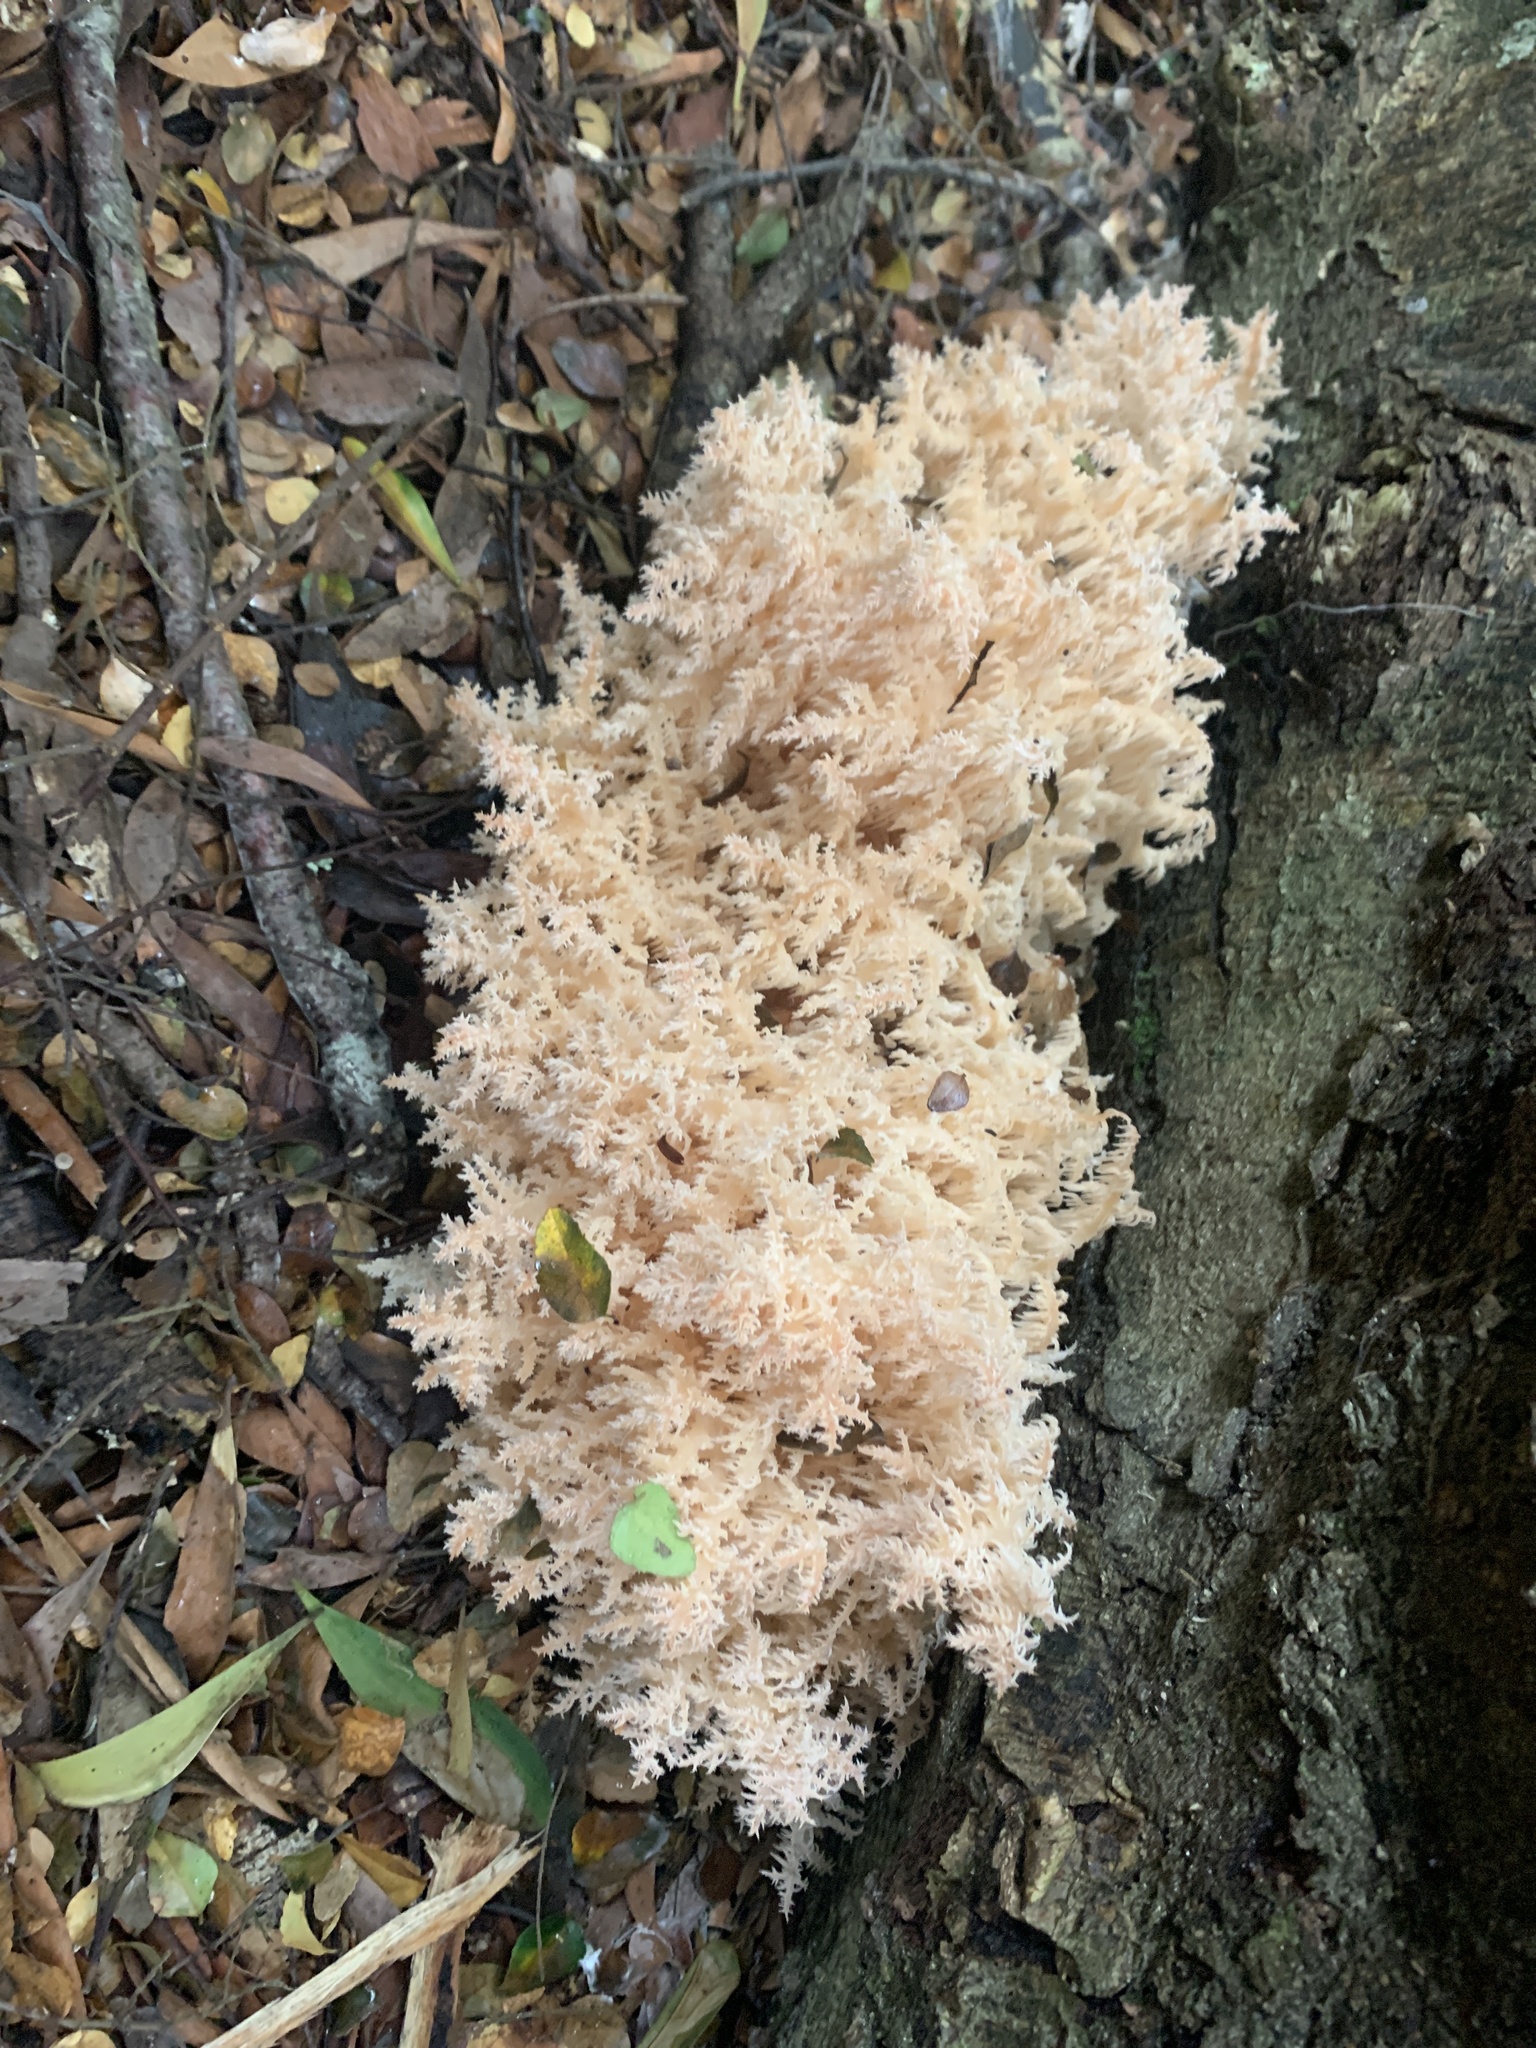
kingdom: Fungi
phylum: Basidiomycota
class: Agaricomycetes
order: Russulales
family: Hericiaceae
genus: Hericium
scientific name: Hericium coralloides
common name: Coral tooth
